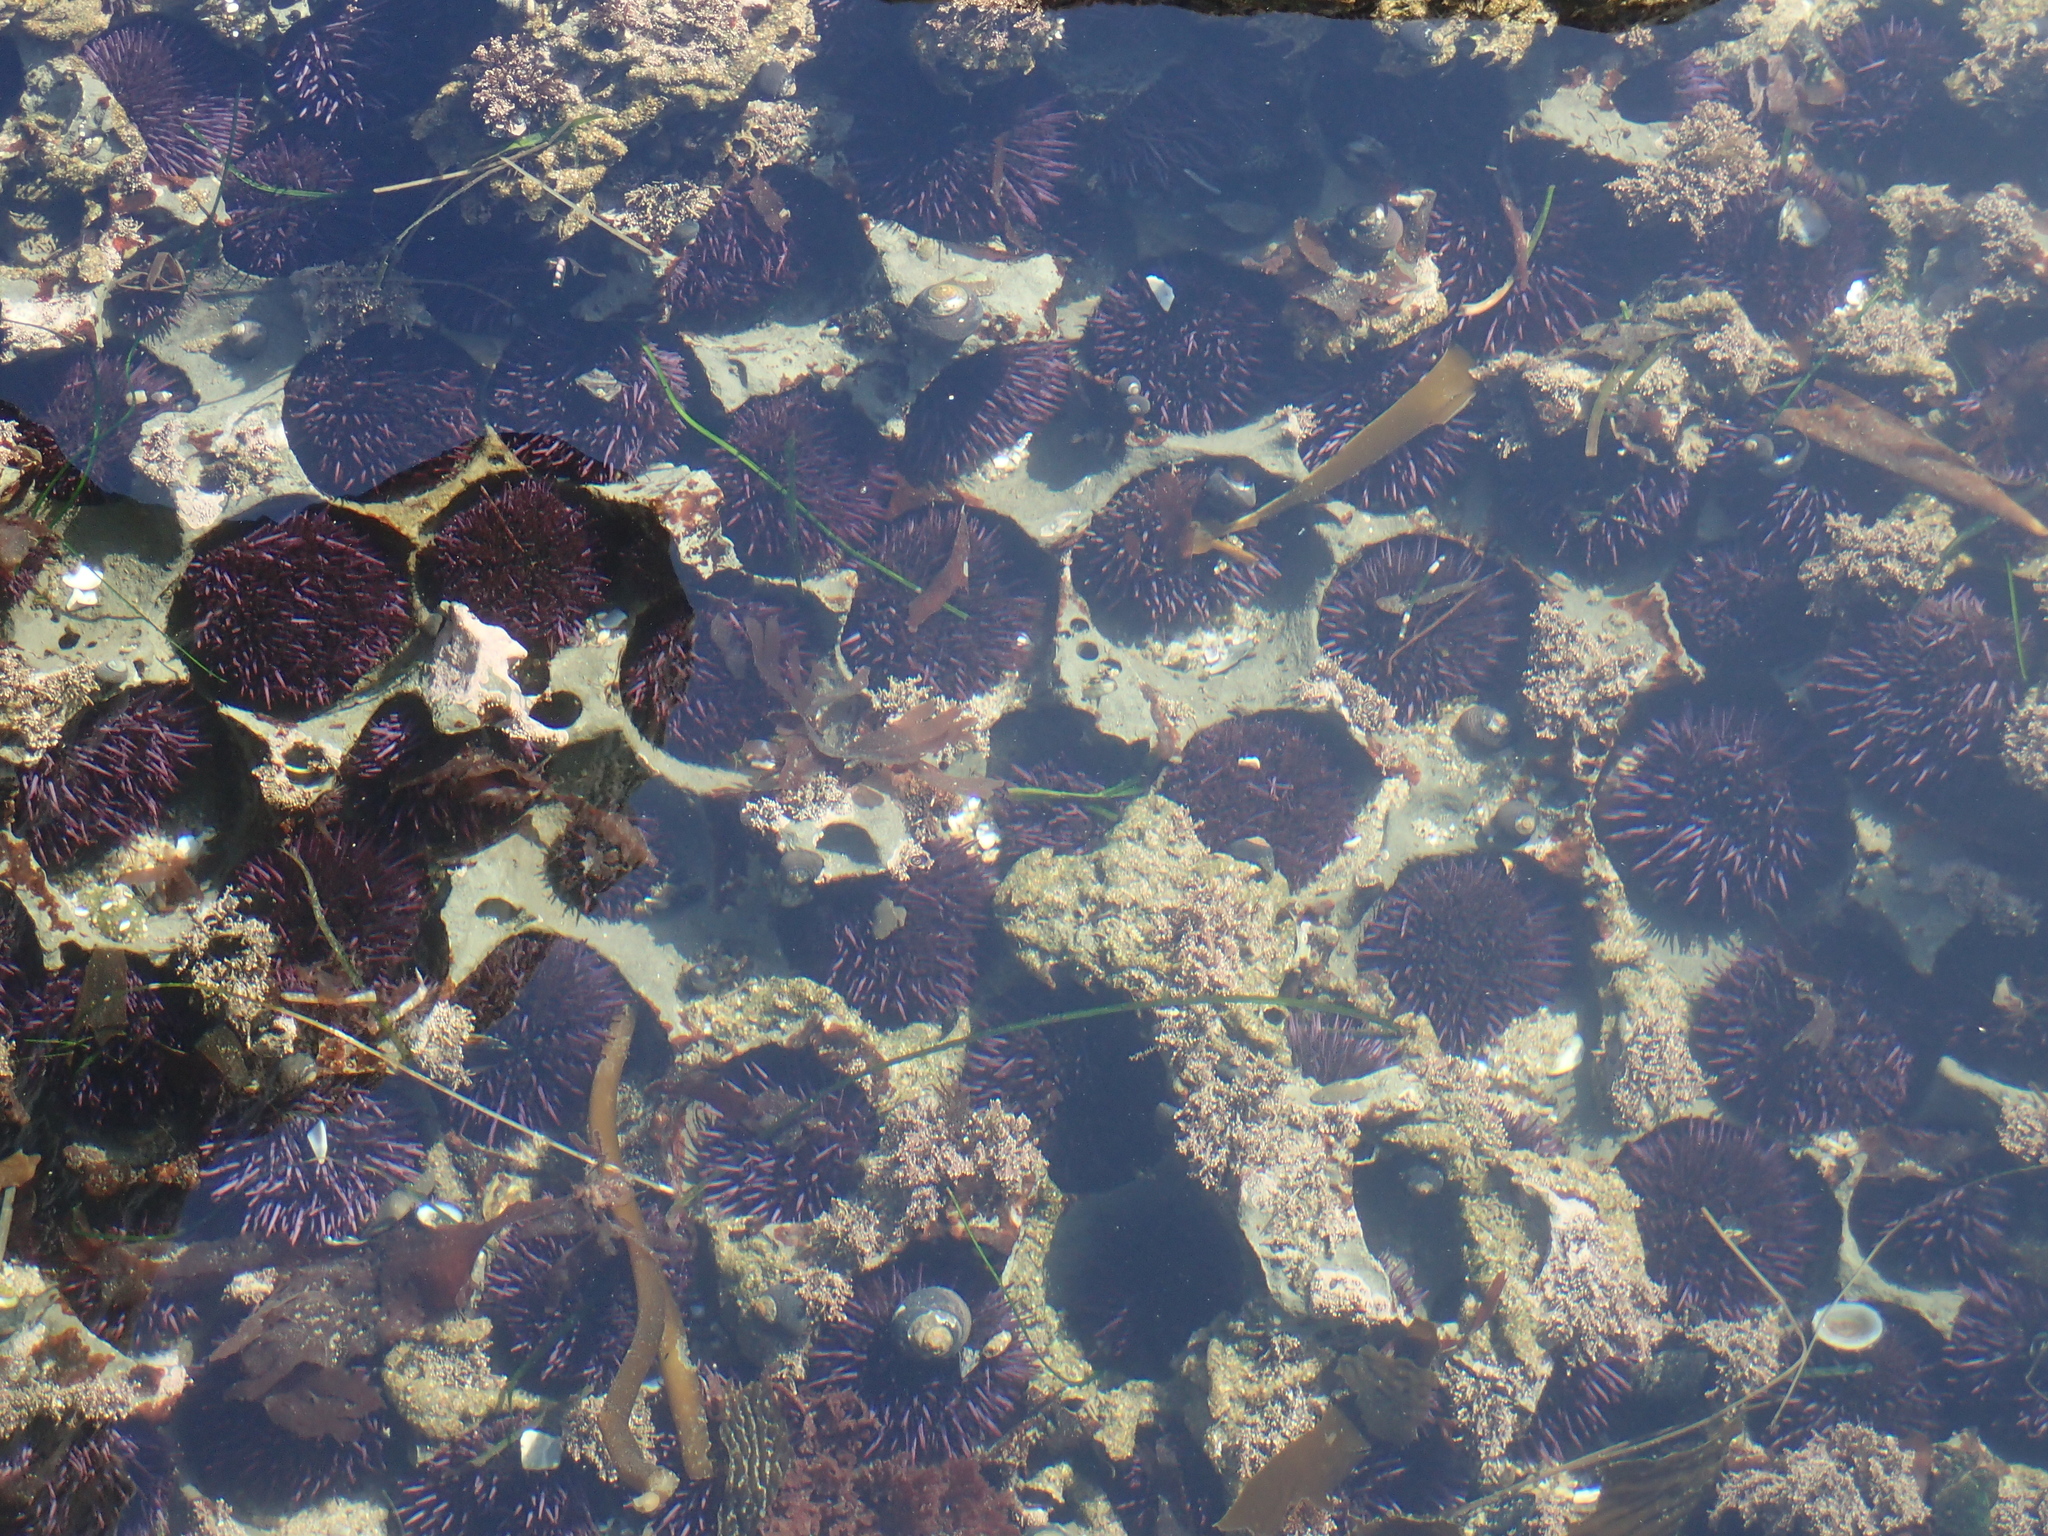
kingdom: Animalia
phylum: Echinodermata
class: Echinoidea
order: Camarodonta
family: Strongylocentrotidae
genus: Strongylocentrotus
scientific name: Strongylocentrotus purpuratus
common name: Purple sea urchin
